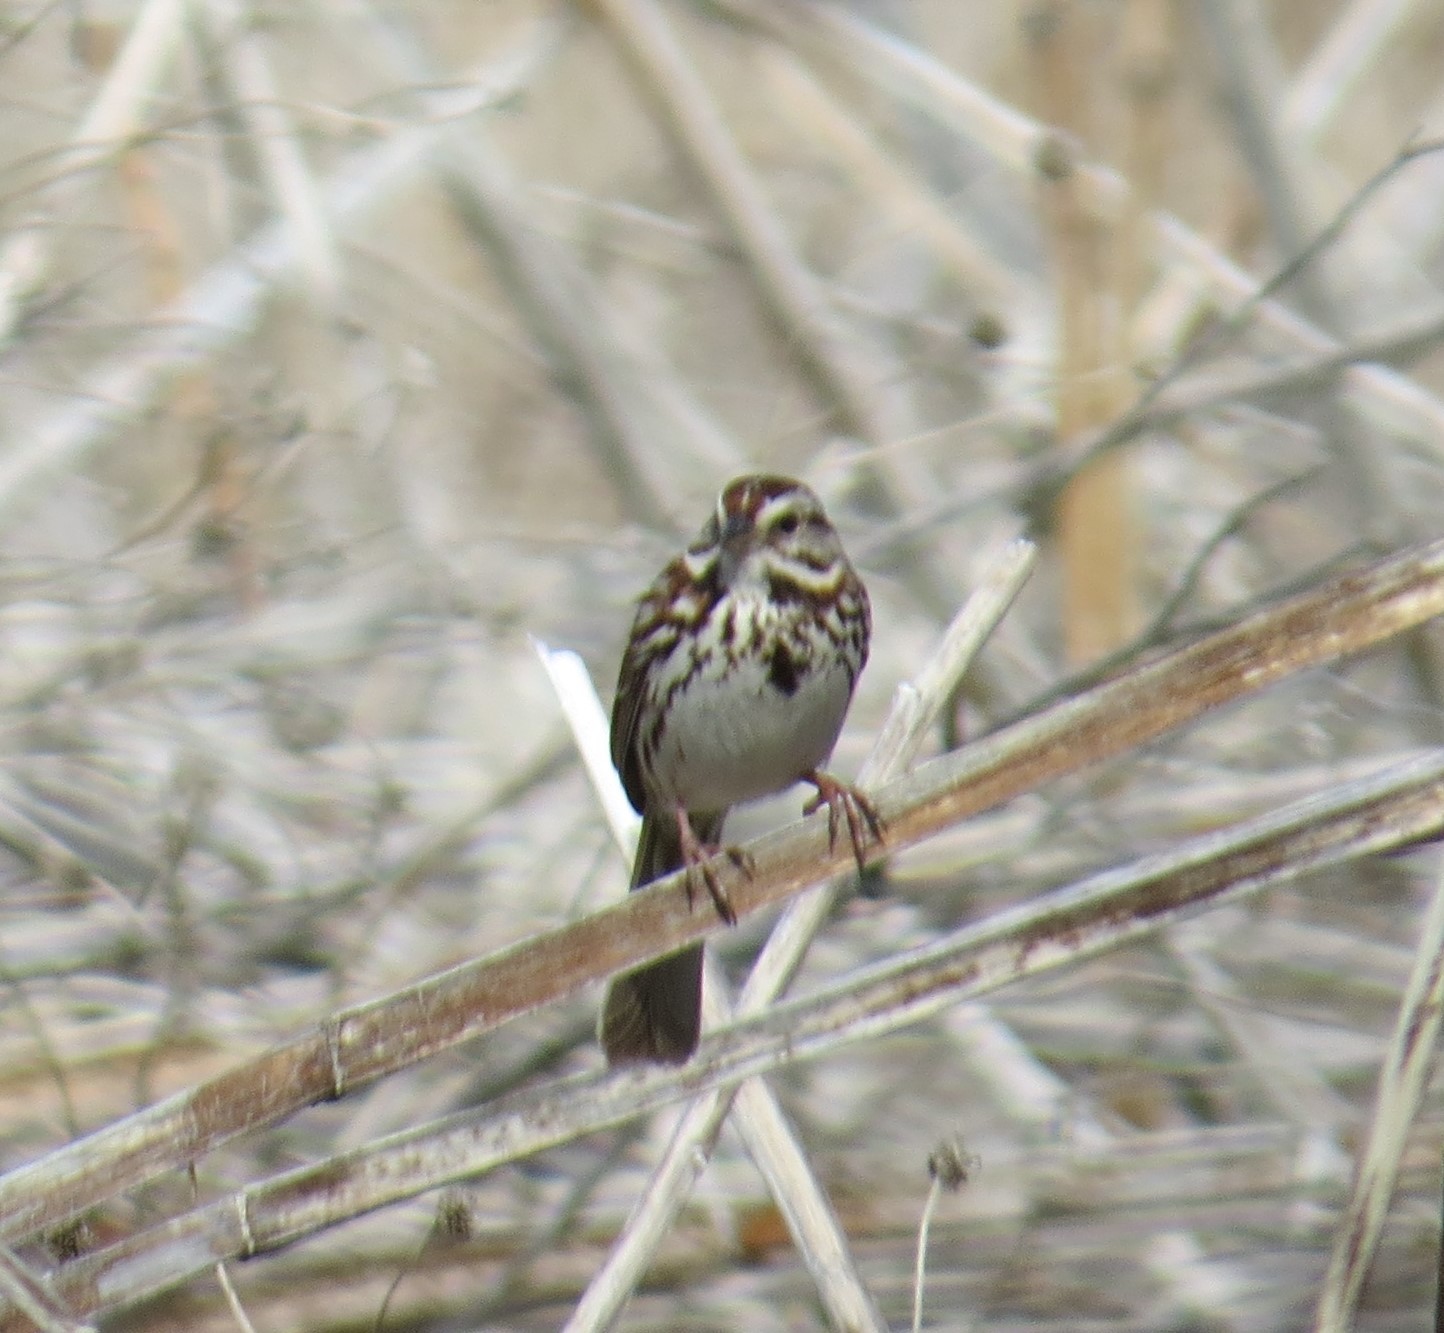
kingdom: Animalia
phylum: Chordata
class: Aves
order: Passeriformes
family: Passerellidae
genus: Melospiza
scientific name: Melospiza melodia
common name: Song sparrow
